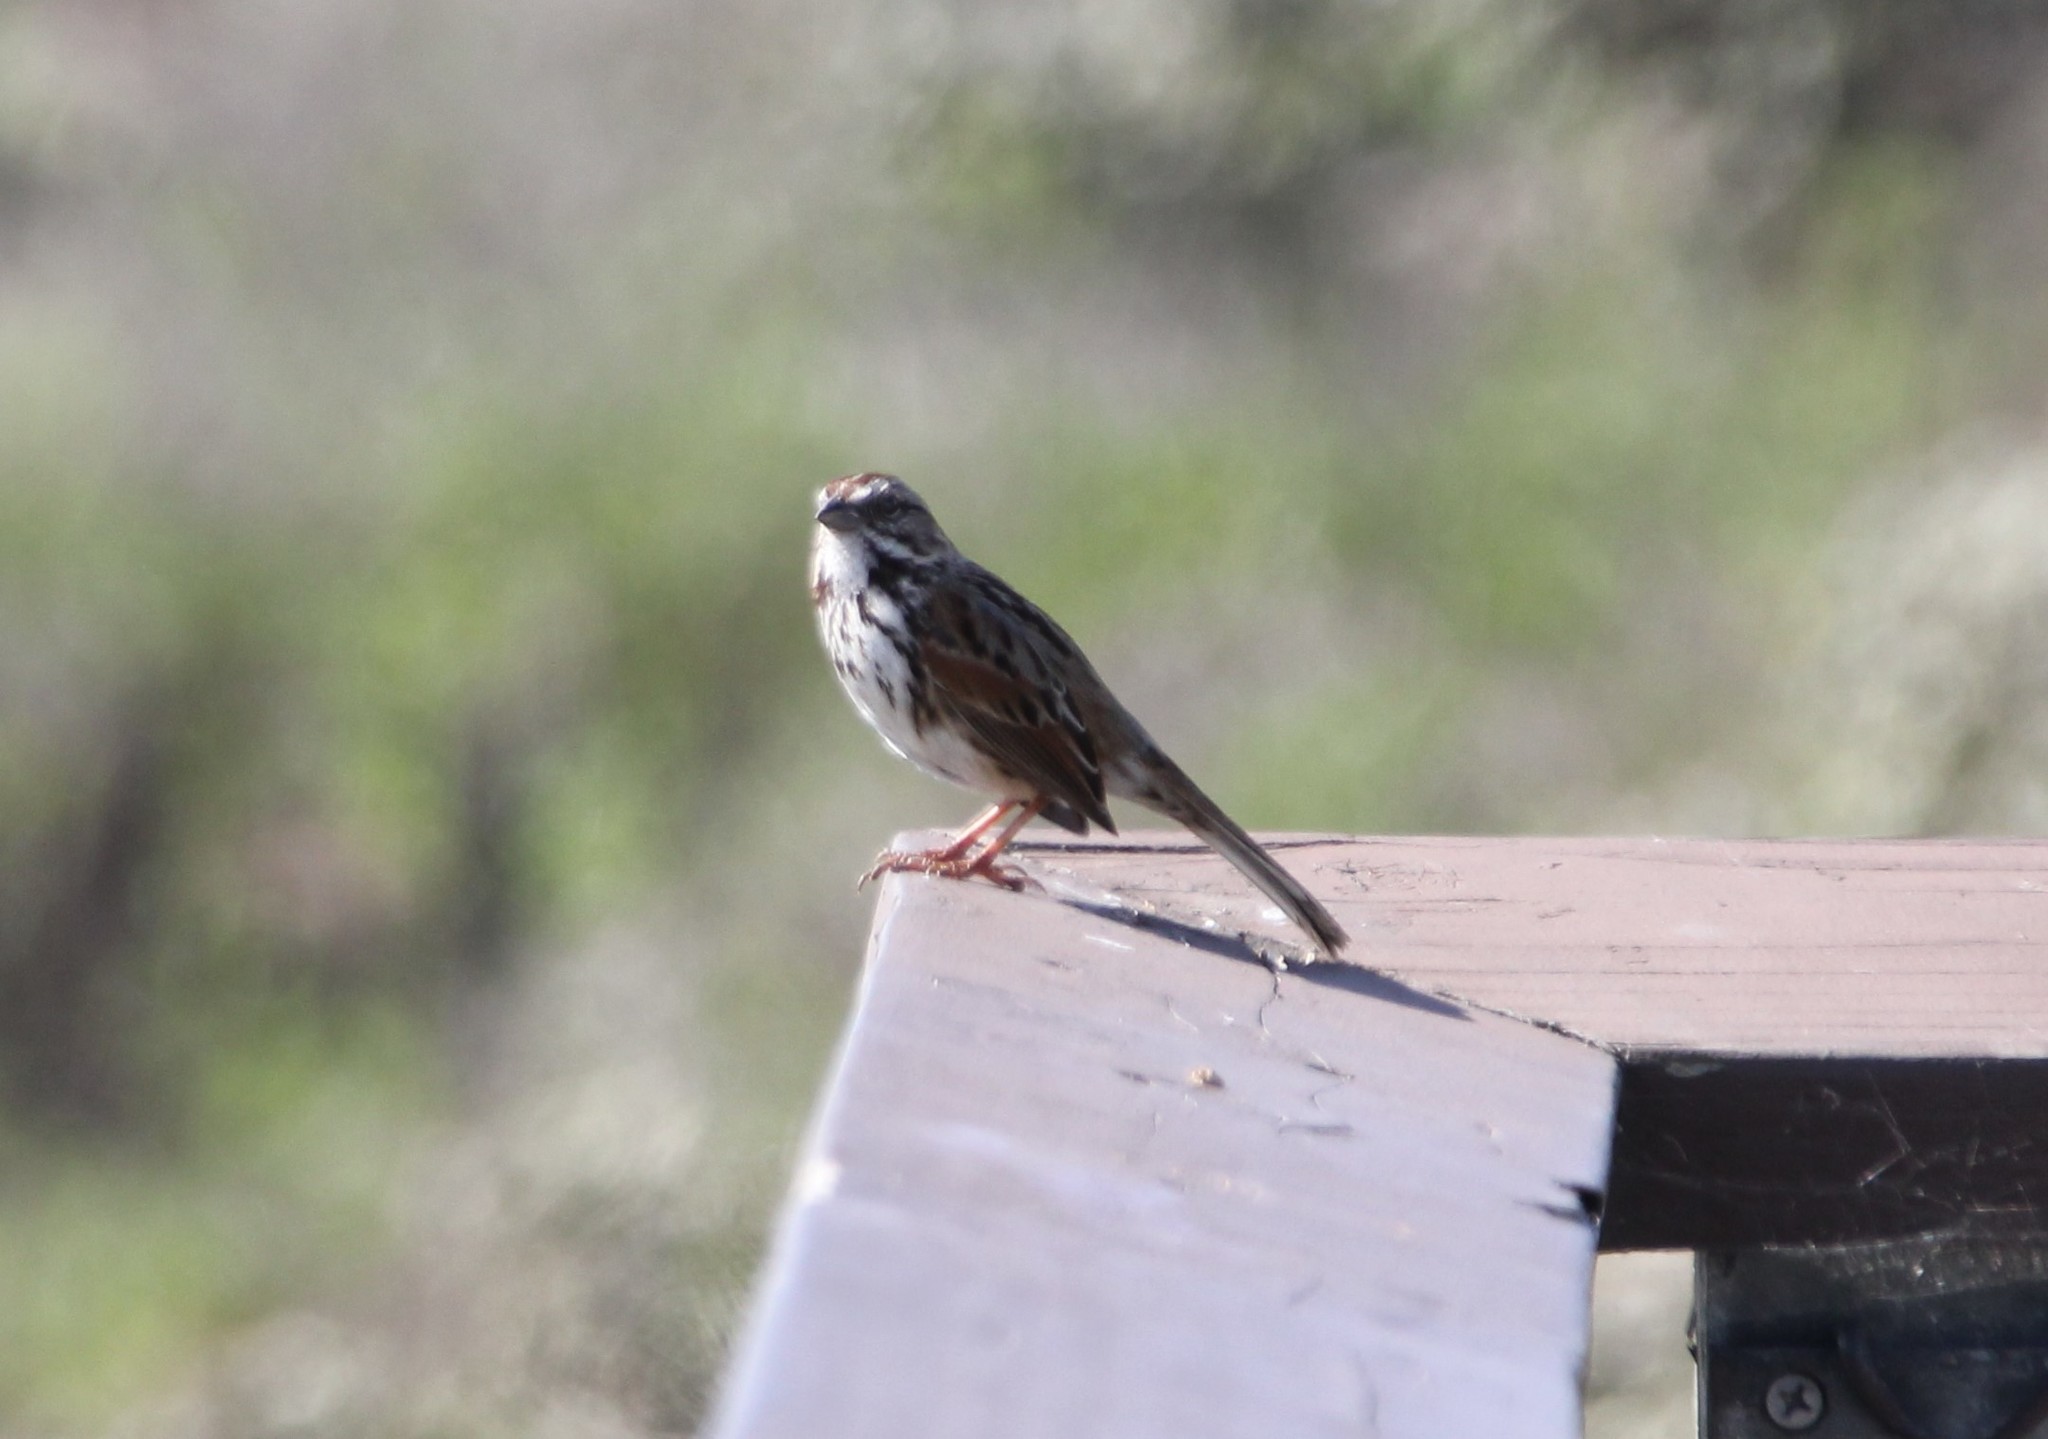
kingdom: Animalia
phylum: Chordata
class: Aves
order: Passeriformes
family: Passerellidae
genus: Melospiza
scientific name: Melospiza melodia
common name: Song sparrow
